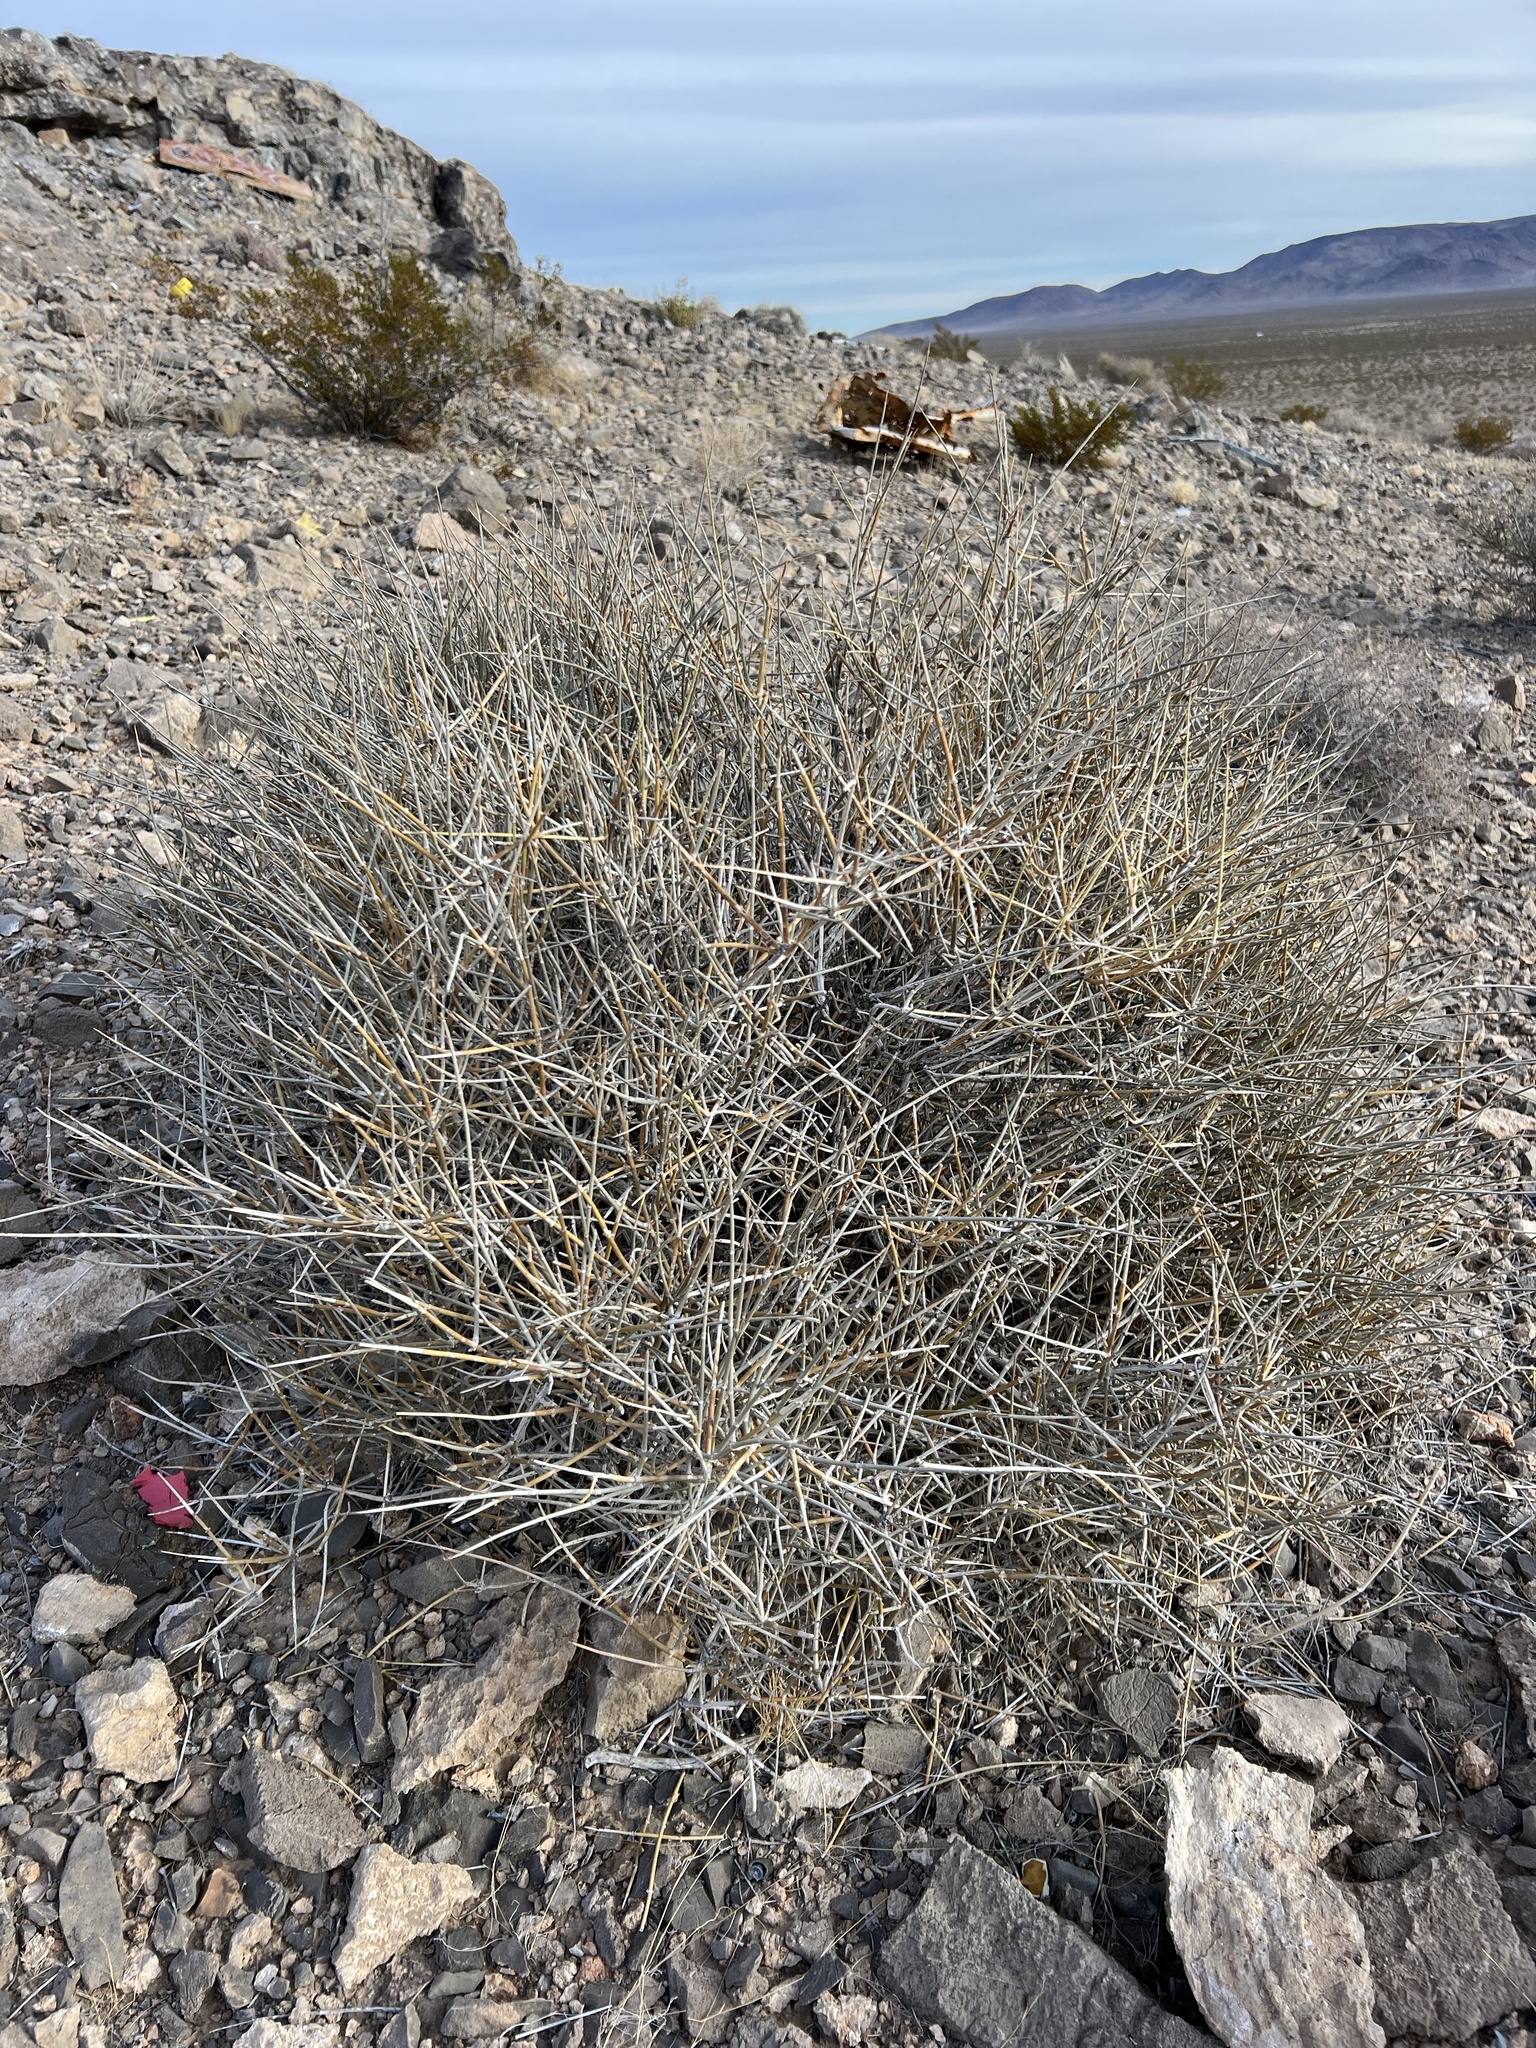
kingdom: Plantae
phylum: Tracheophyta
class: Gnetopsida
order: Ephedrales
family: Ephedraceae
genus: Ephedra
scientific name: Ephedra nevadensis
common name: Gray ephedra
